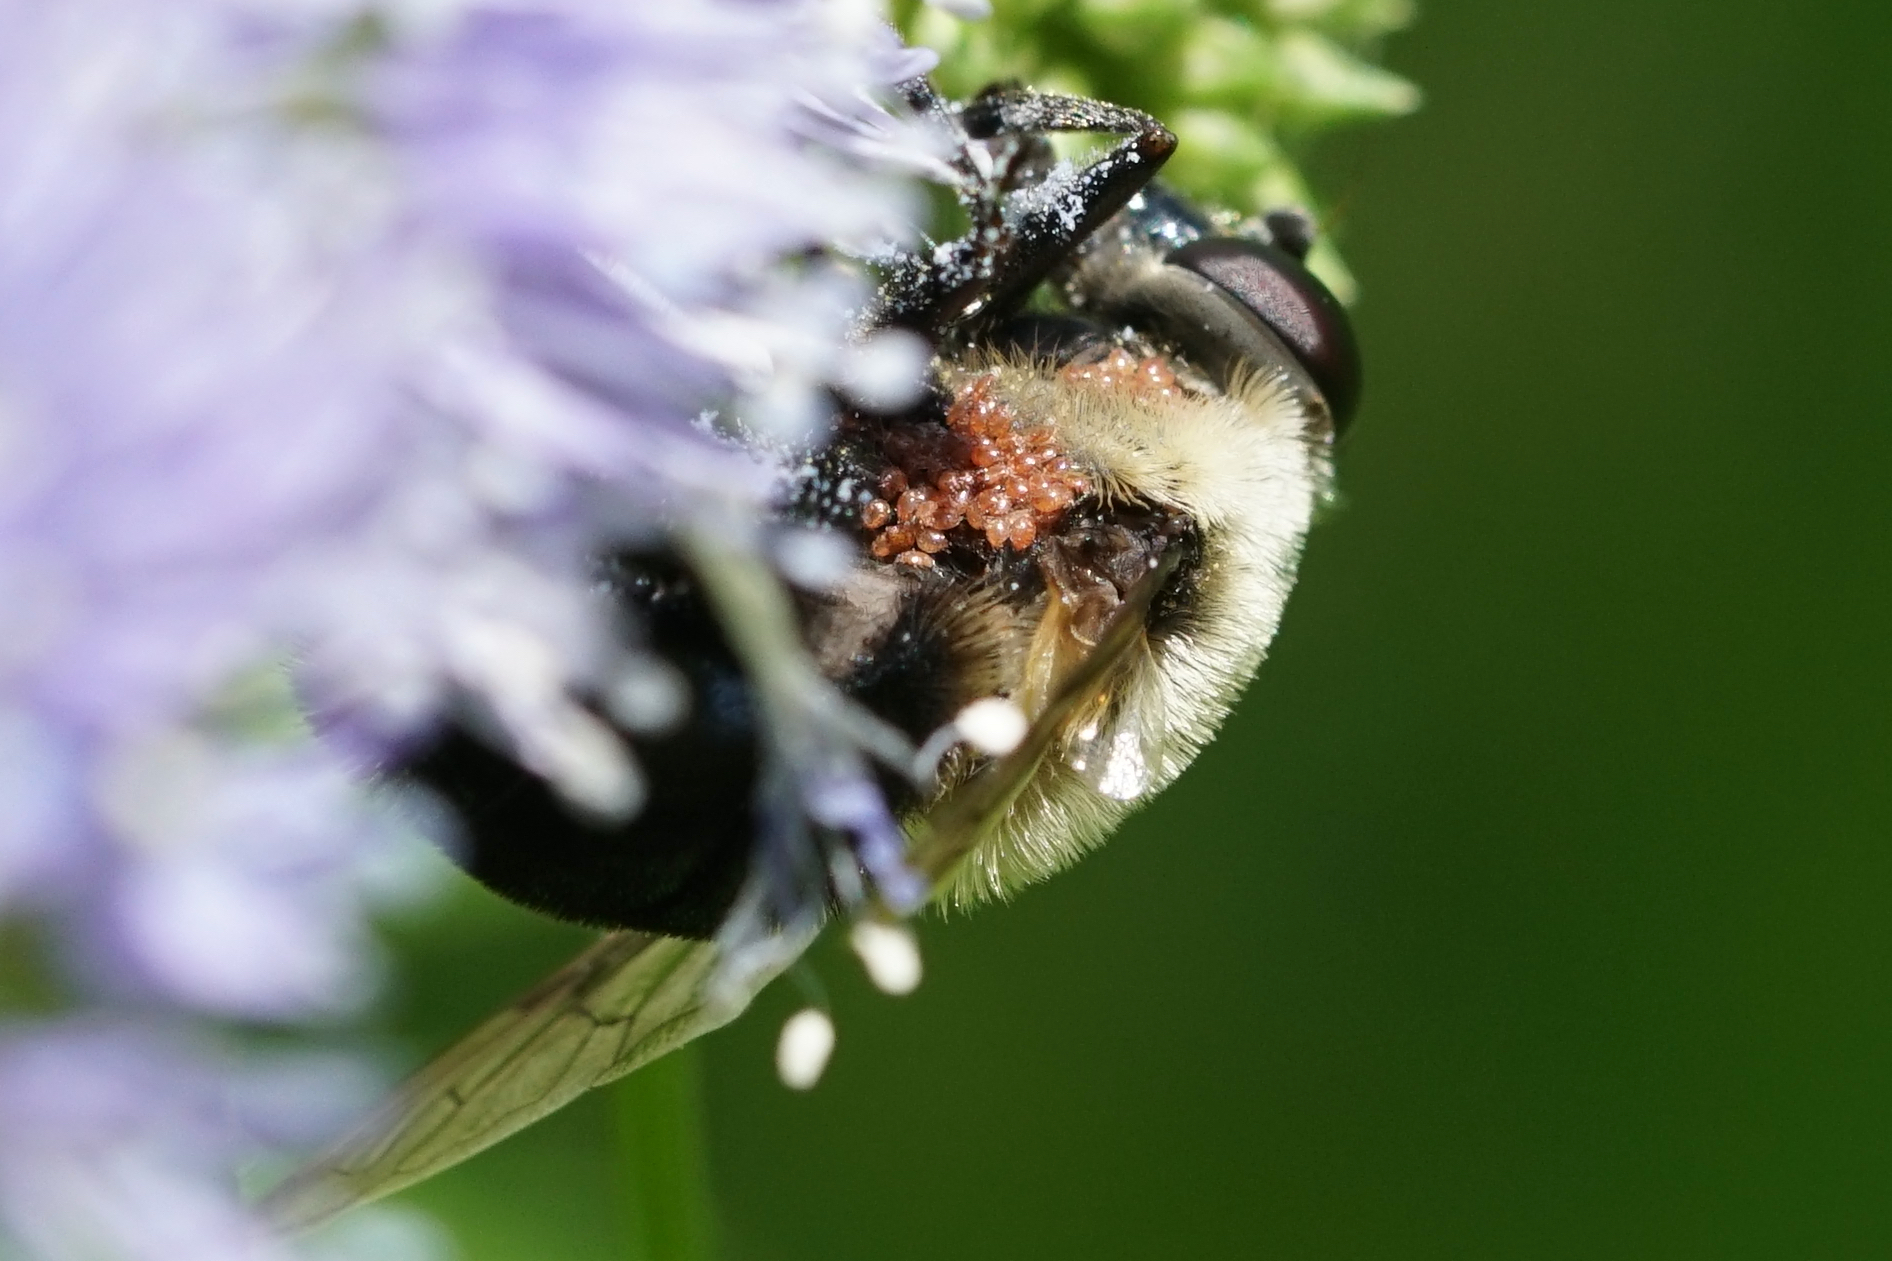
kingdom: Animalia
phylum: Arthropoda
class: Insecta
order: Diptera
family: Syrphidae
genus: Imatisma
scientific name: Imatisma bautias
